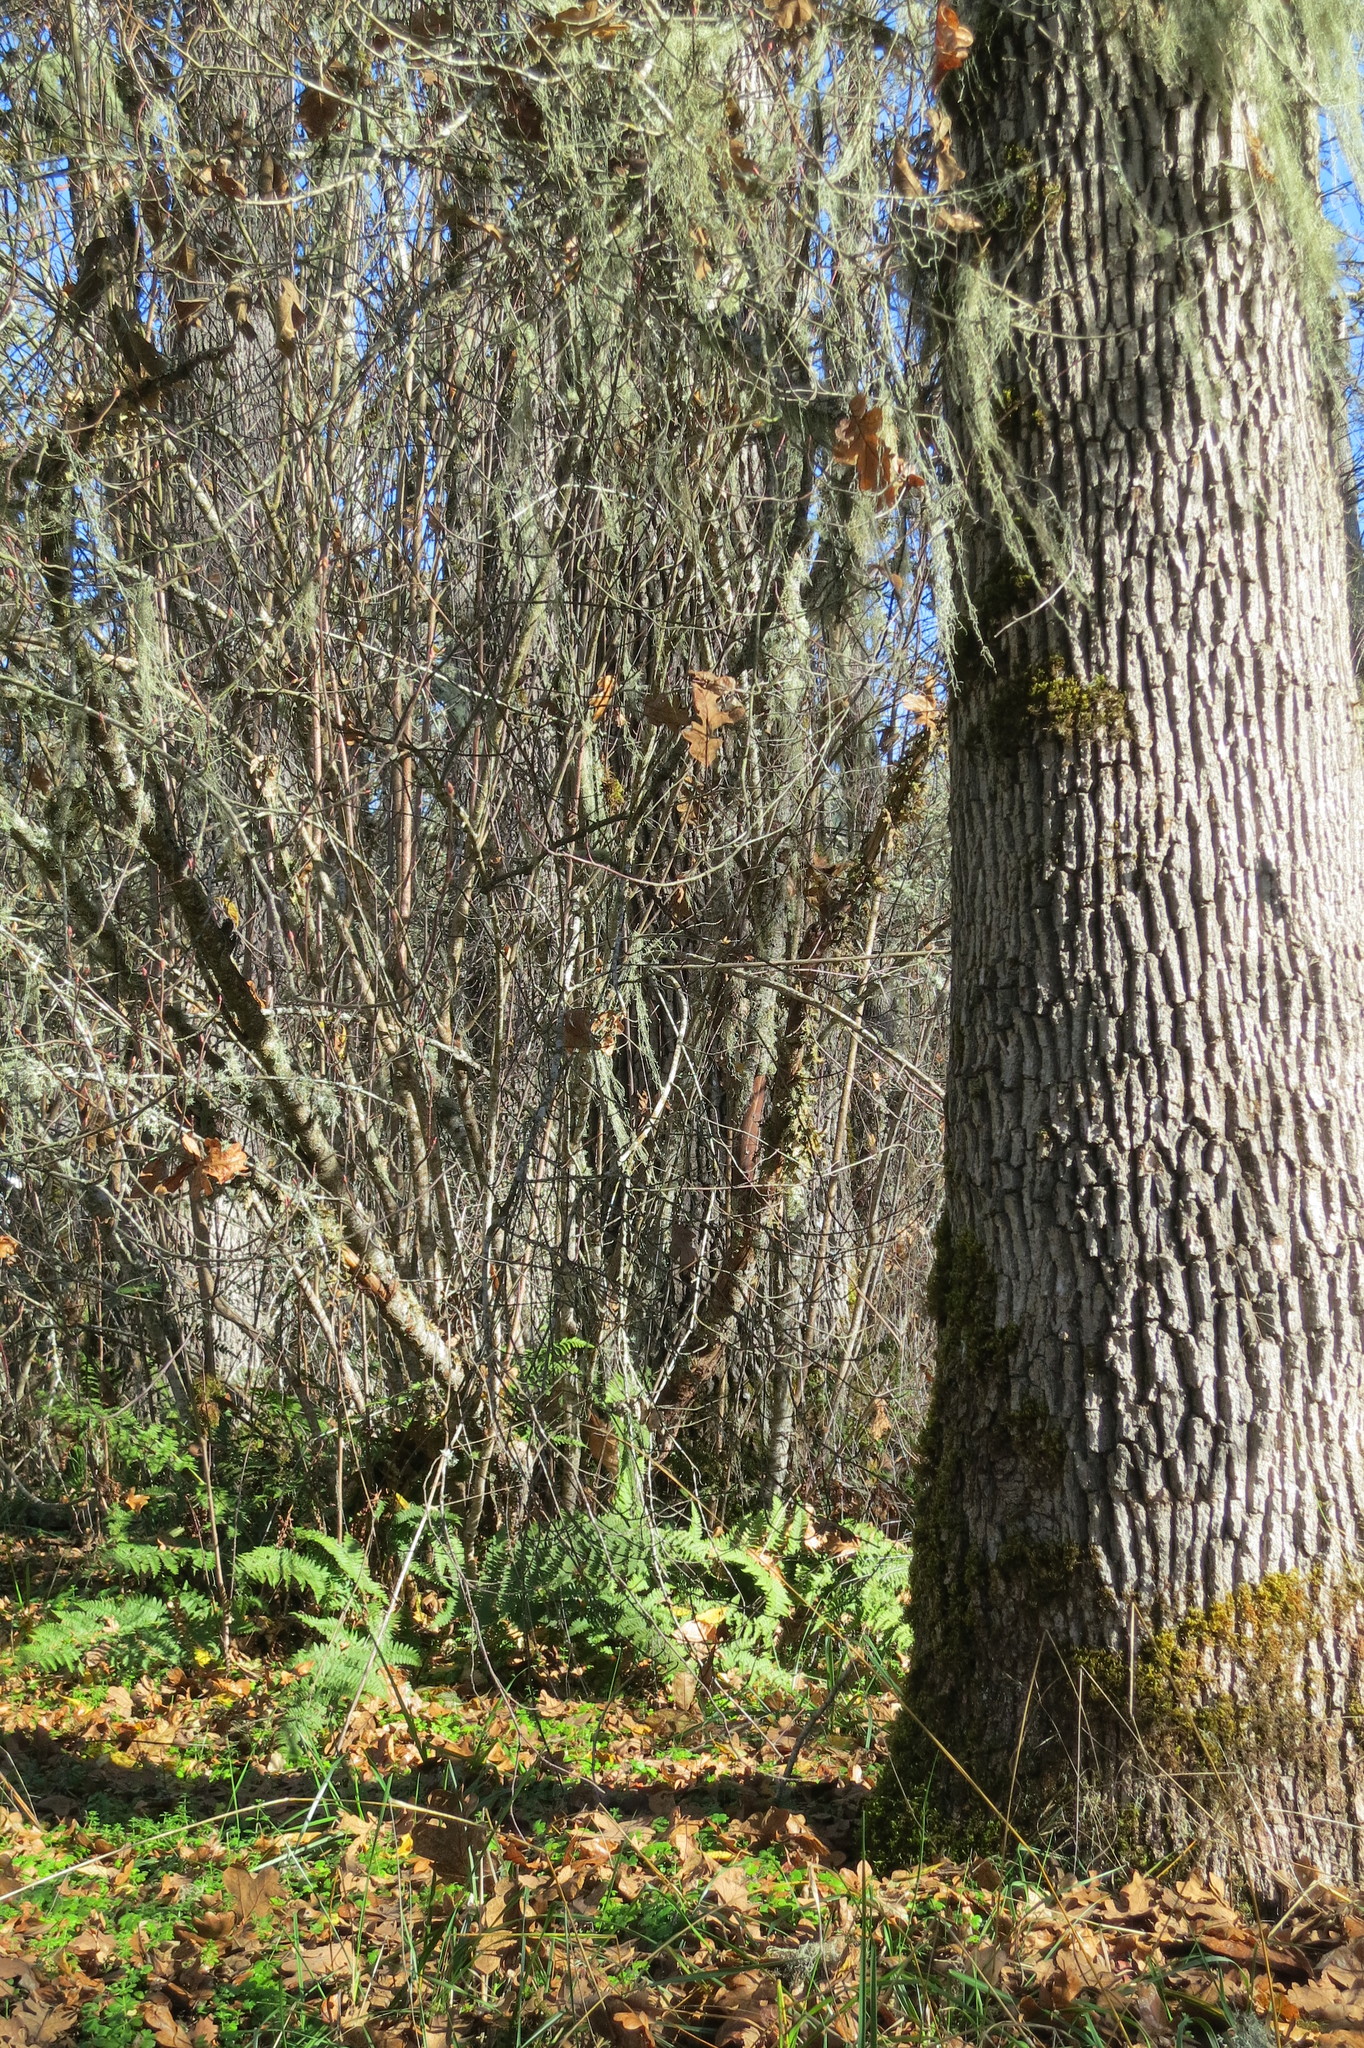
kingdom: Plantae
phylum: Tracheophyta
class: Polypodiopsida
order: Polypodiales
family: Dryopteridaceae
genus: Dryopteris
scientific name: Dryopteris arguta
